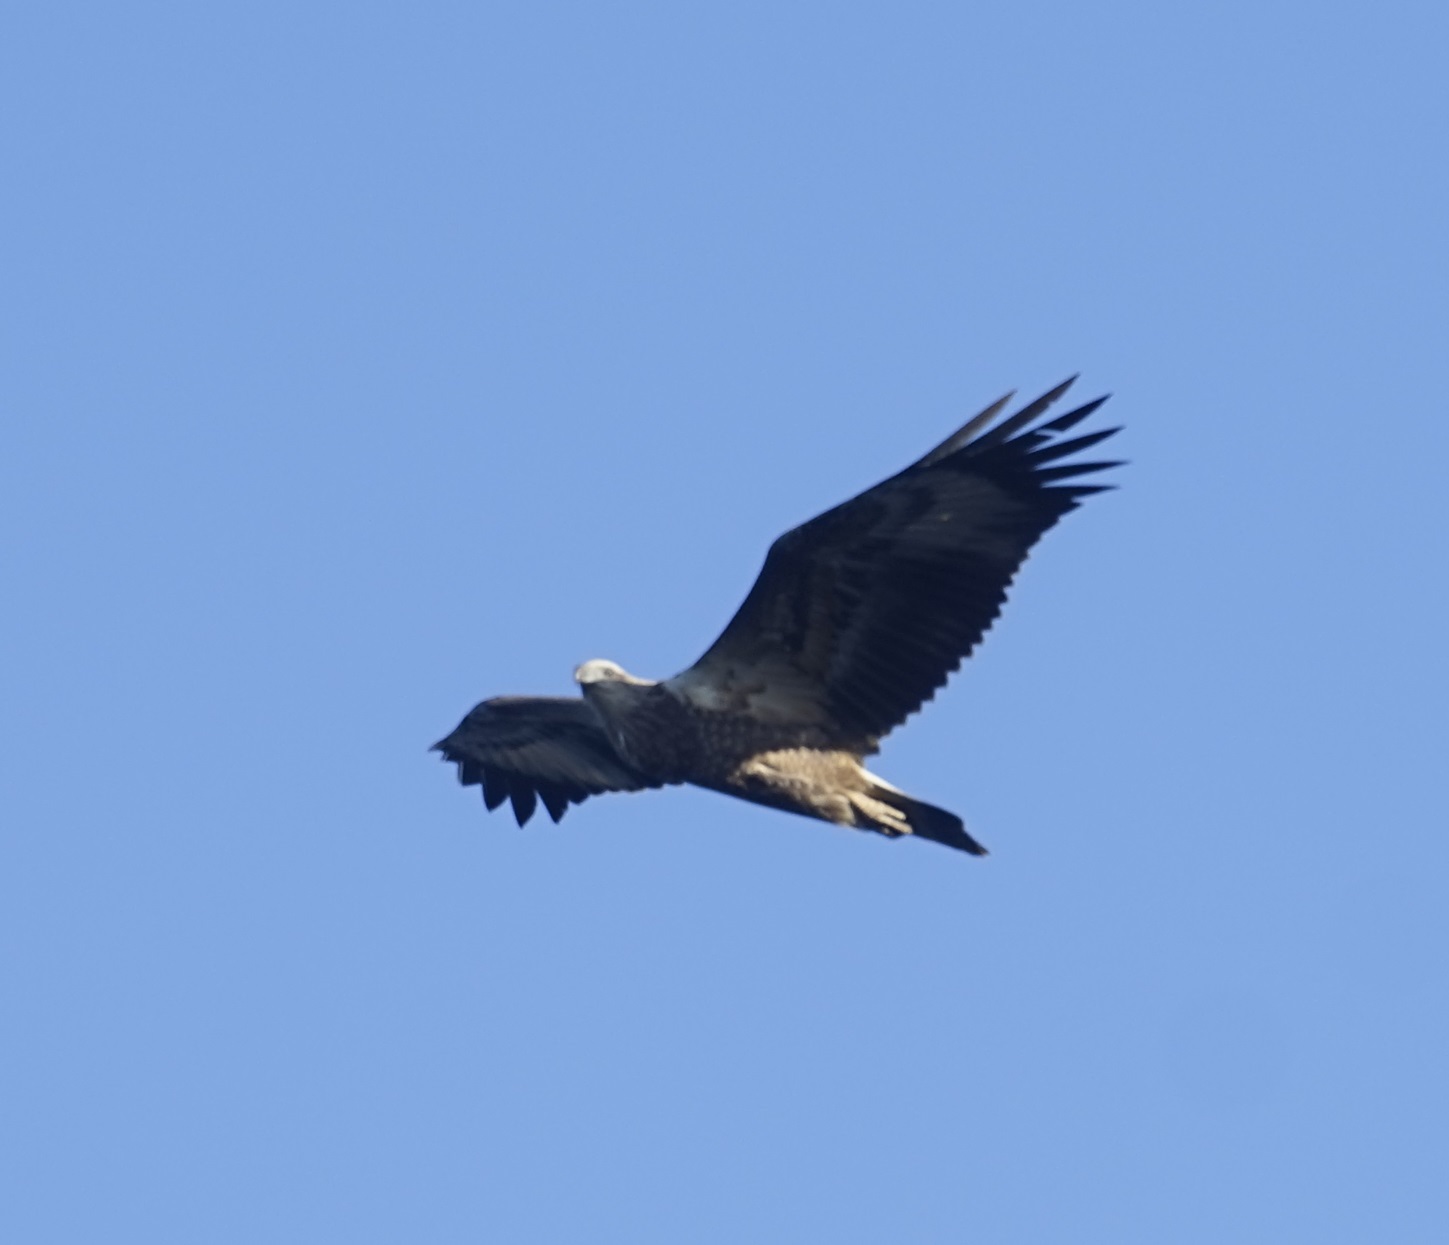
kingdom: Animalia
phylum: Chordata
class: Aves
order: Accipitriformes
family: Accipitridae
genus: Haliaeetus
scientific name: Haliaeetus leucogaster
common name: White-bellied sea eagle
